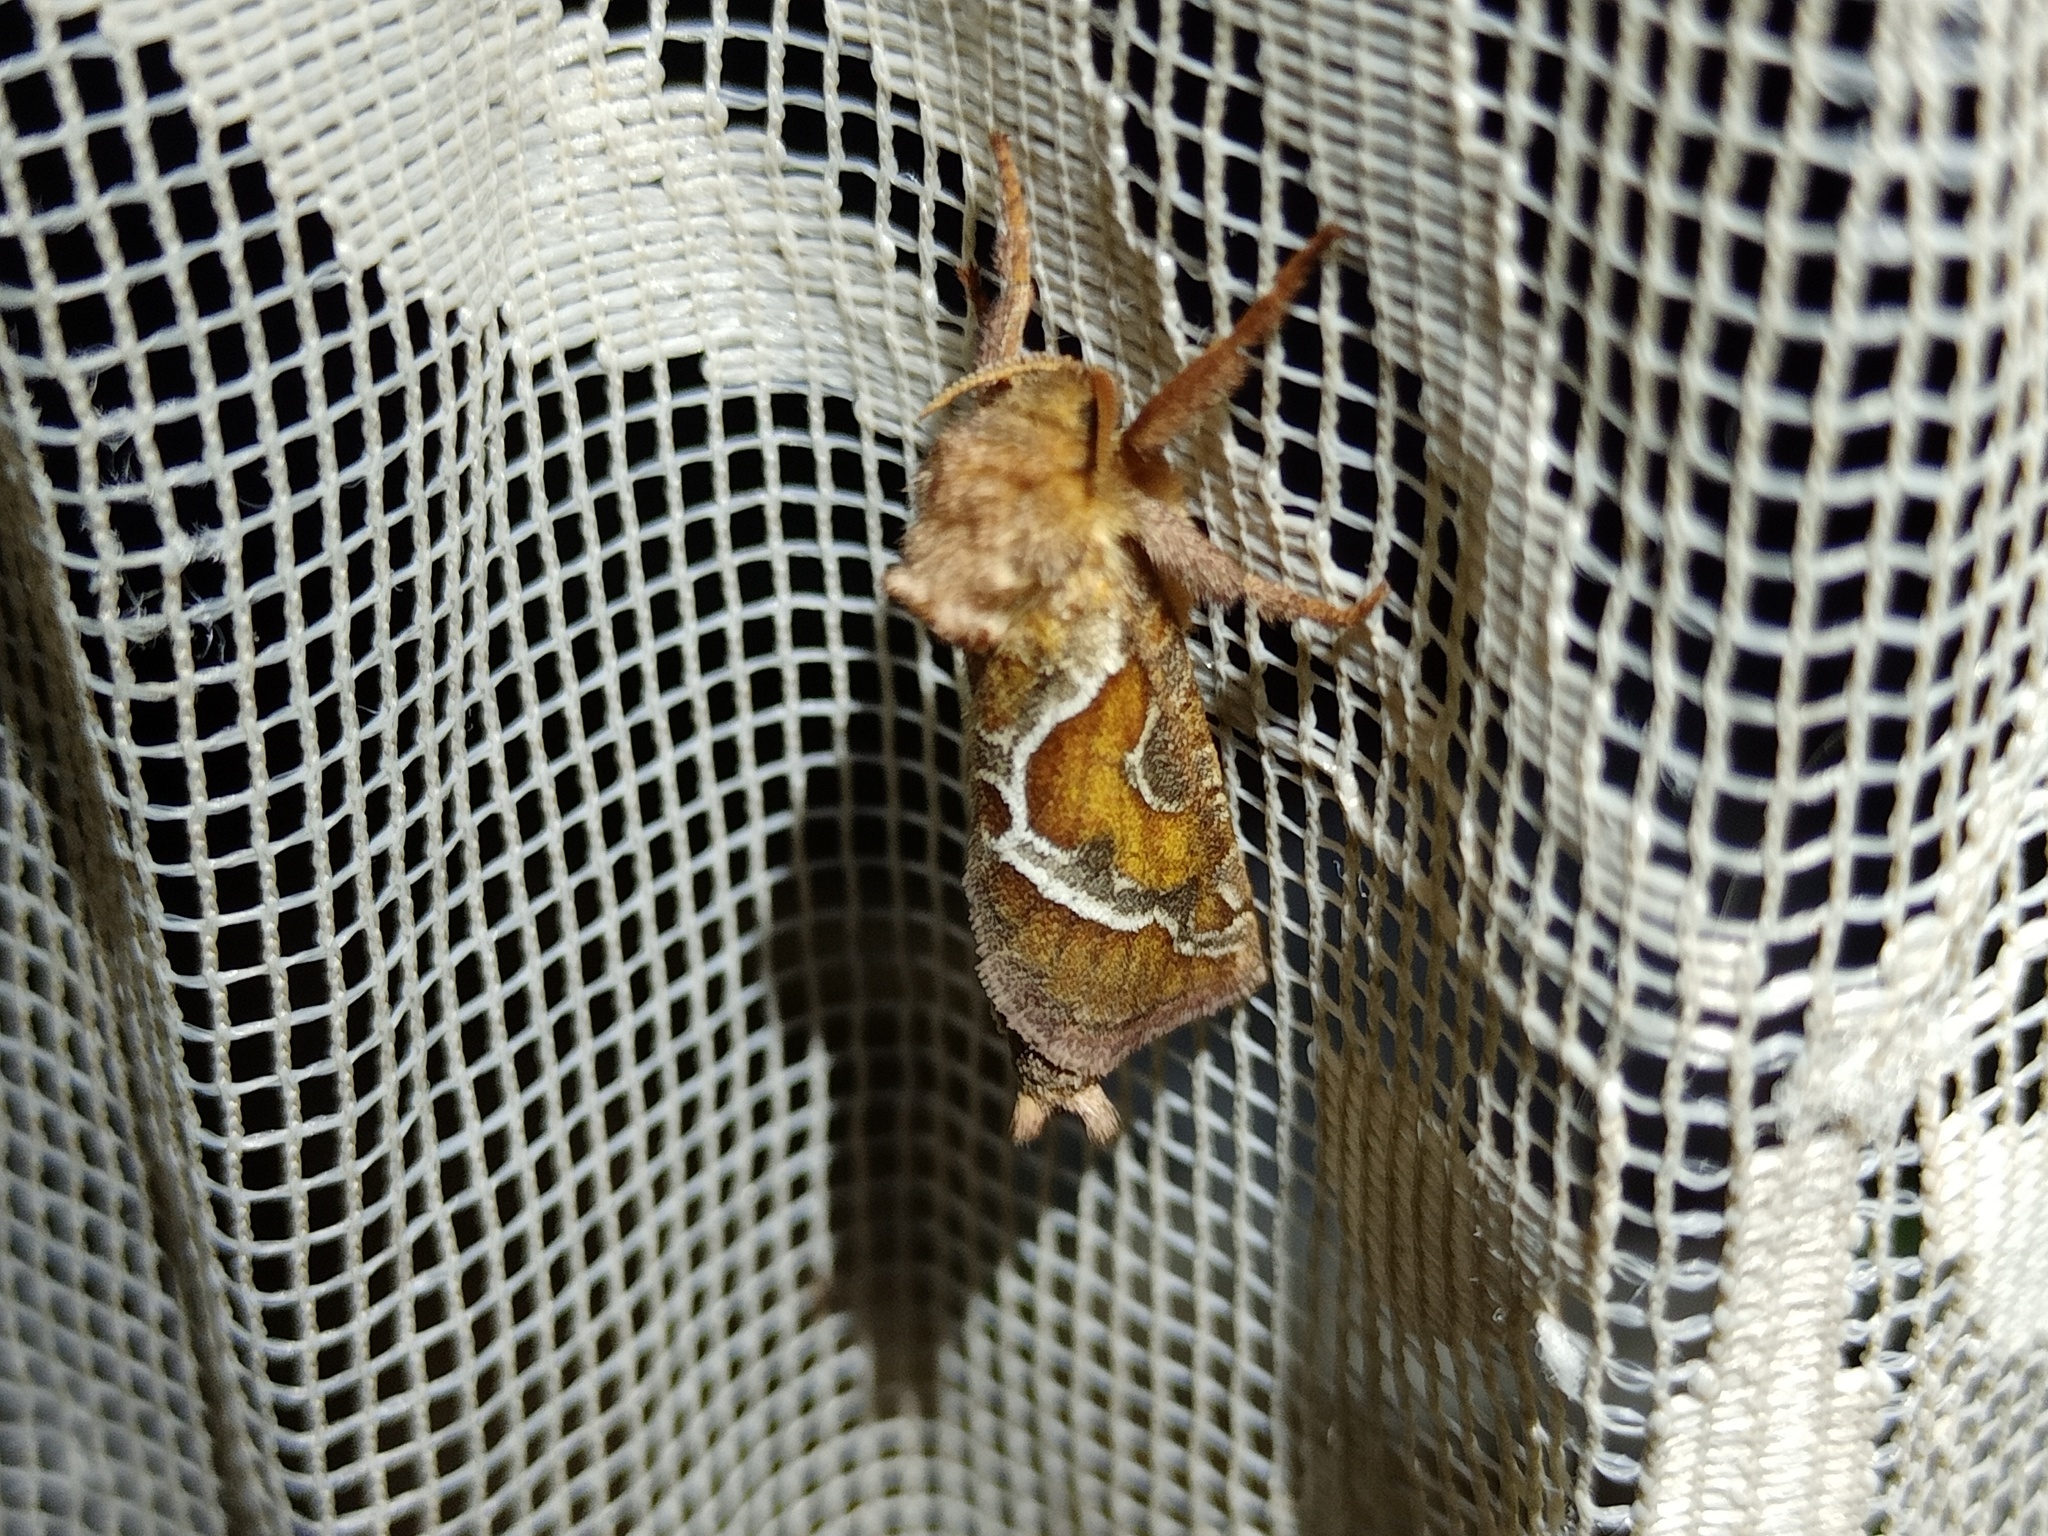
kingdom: Animalia
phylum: Arthropoda
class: Insecta
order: Lepidoptera
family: Hepialidae
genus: Triodia
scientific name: Triodia sylvina
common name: Orange swift
